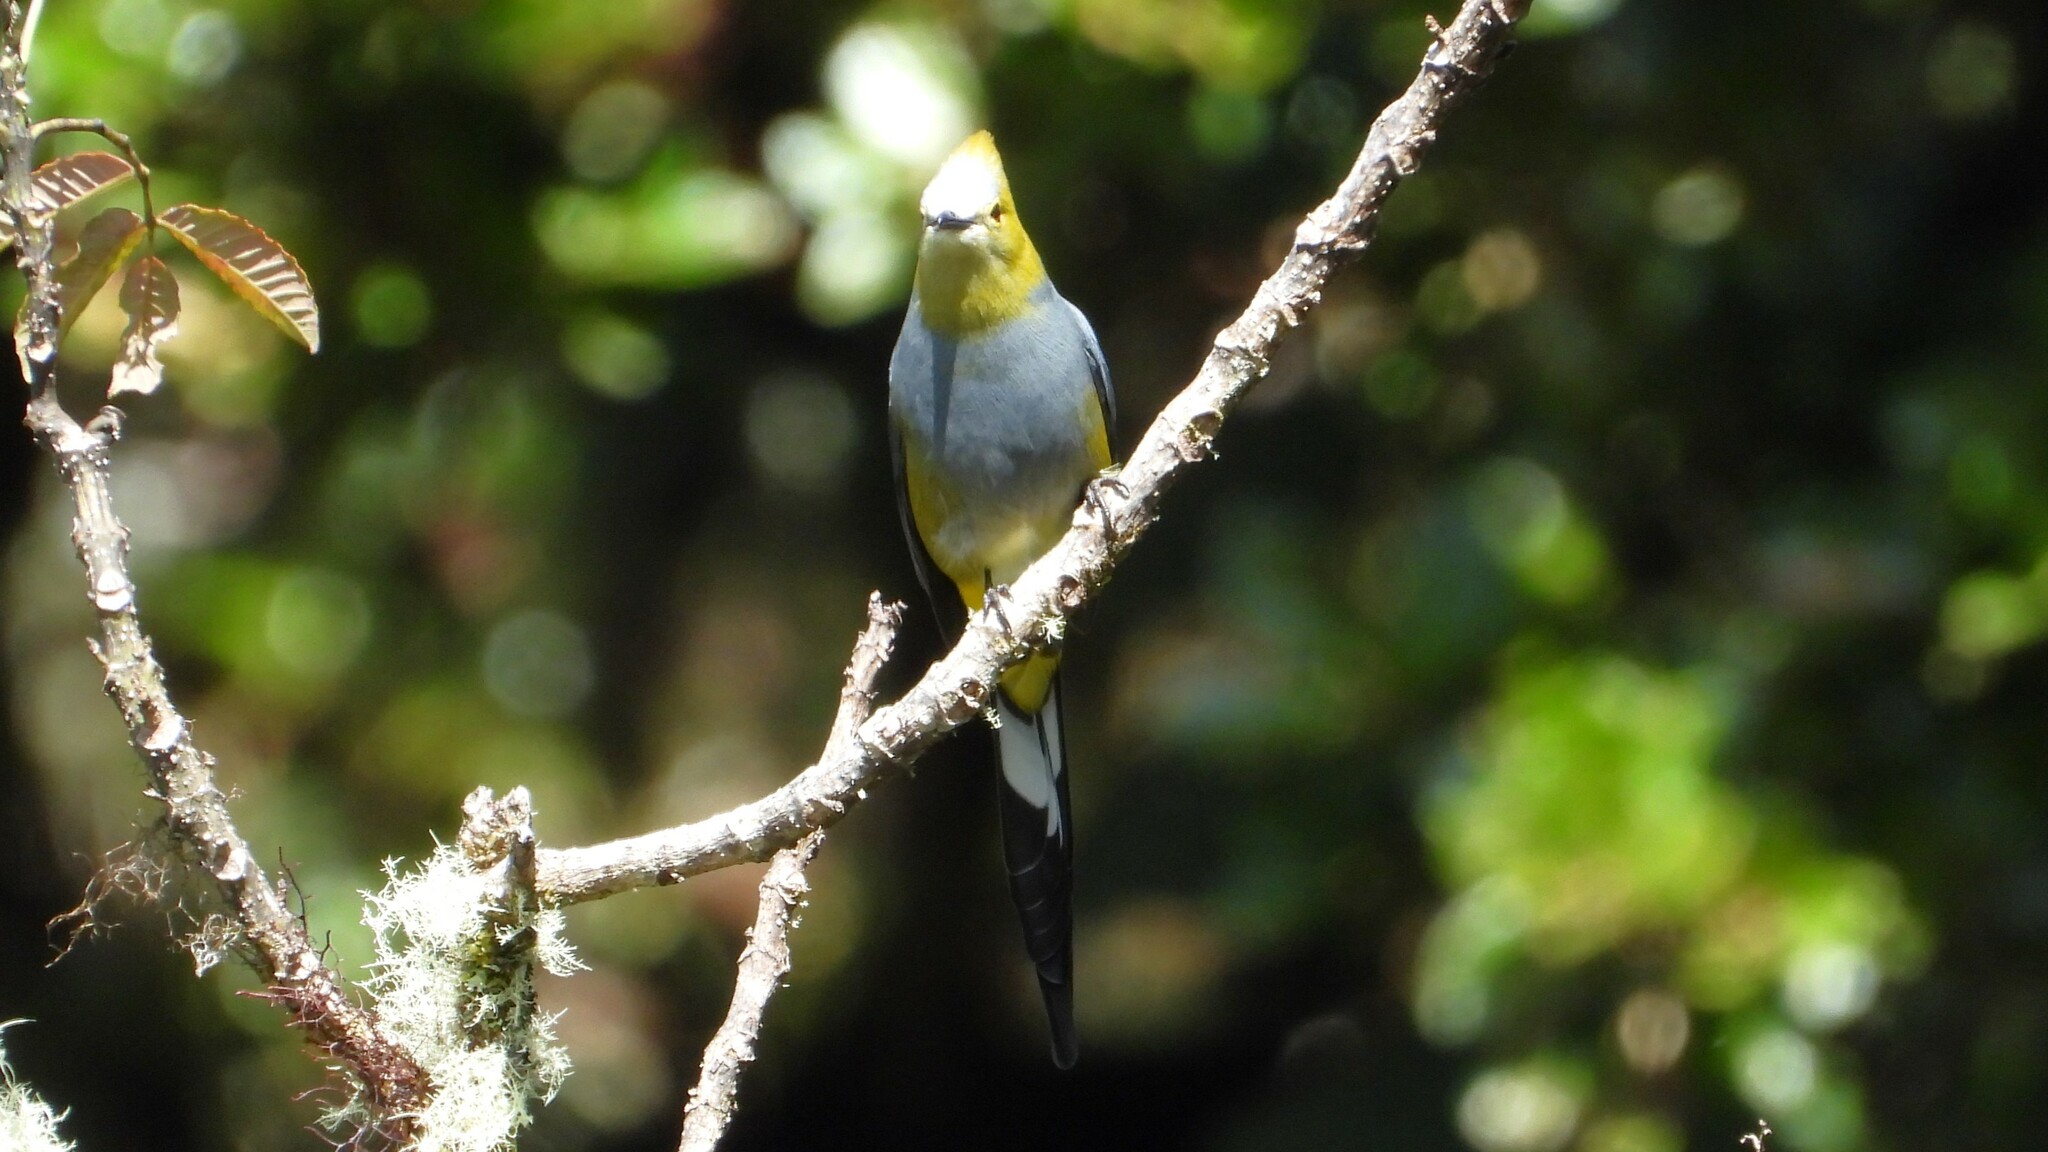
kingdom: Animalia
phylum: Chordata
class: Aves
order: Passeriformes
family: Ptilogonatidae
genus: Ptilogonys
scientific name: Ptilogonys caudatus
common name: Long-tailed silky-flycatcher
